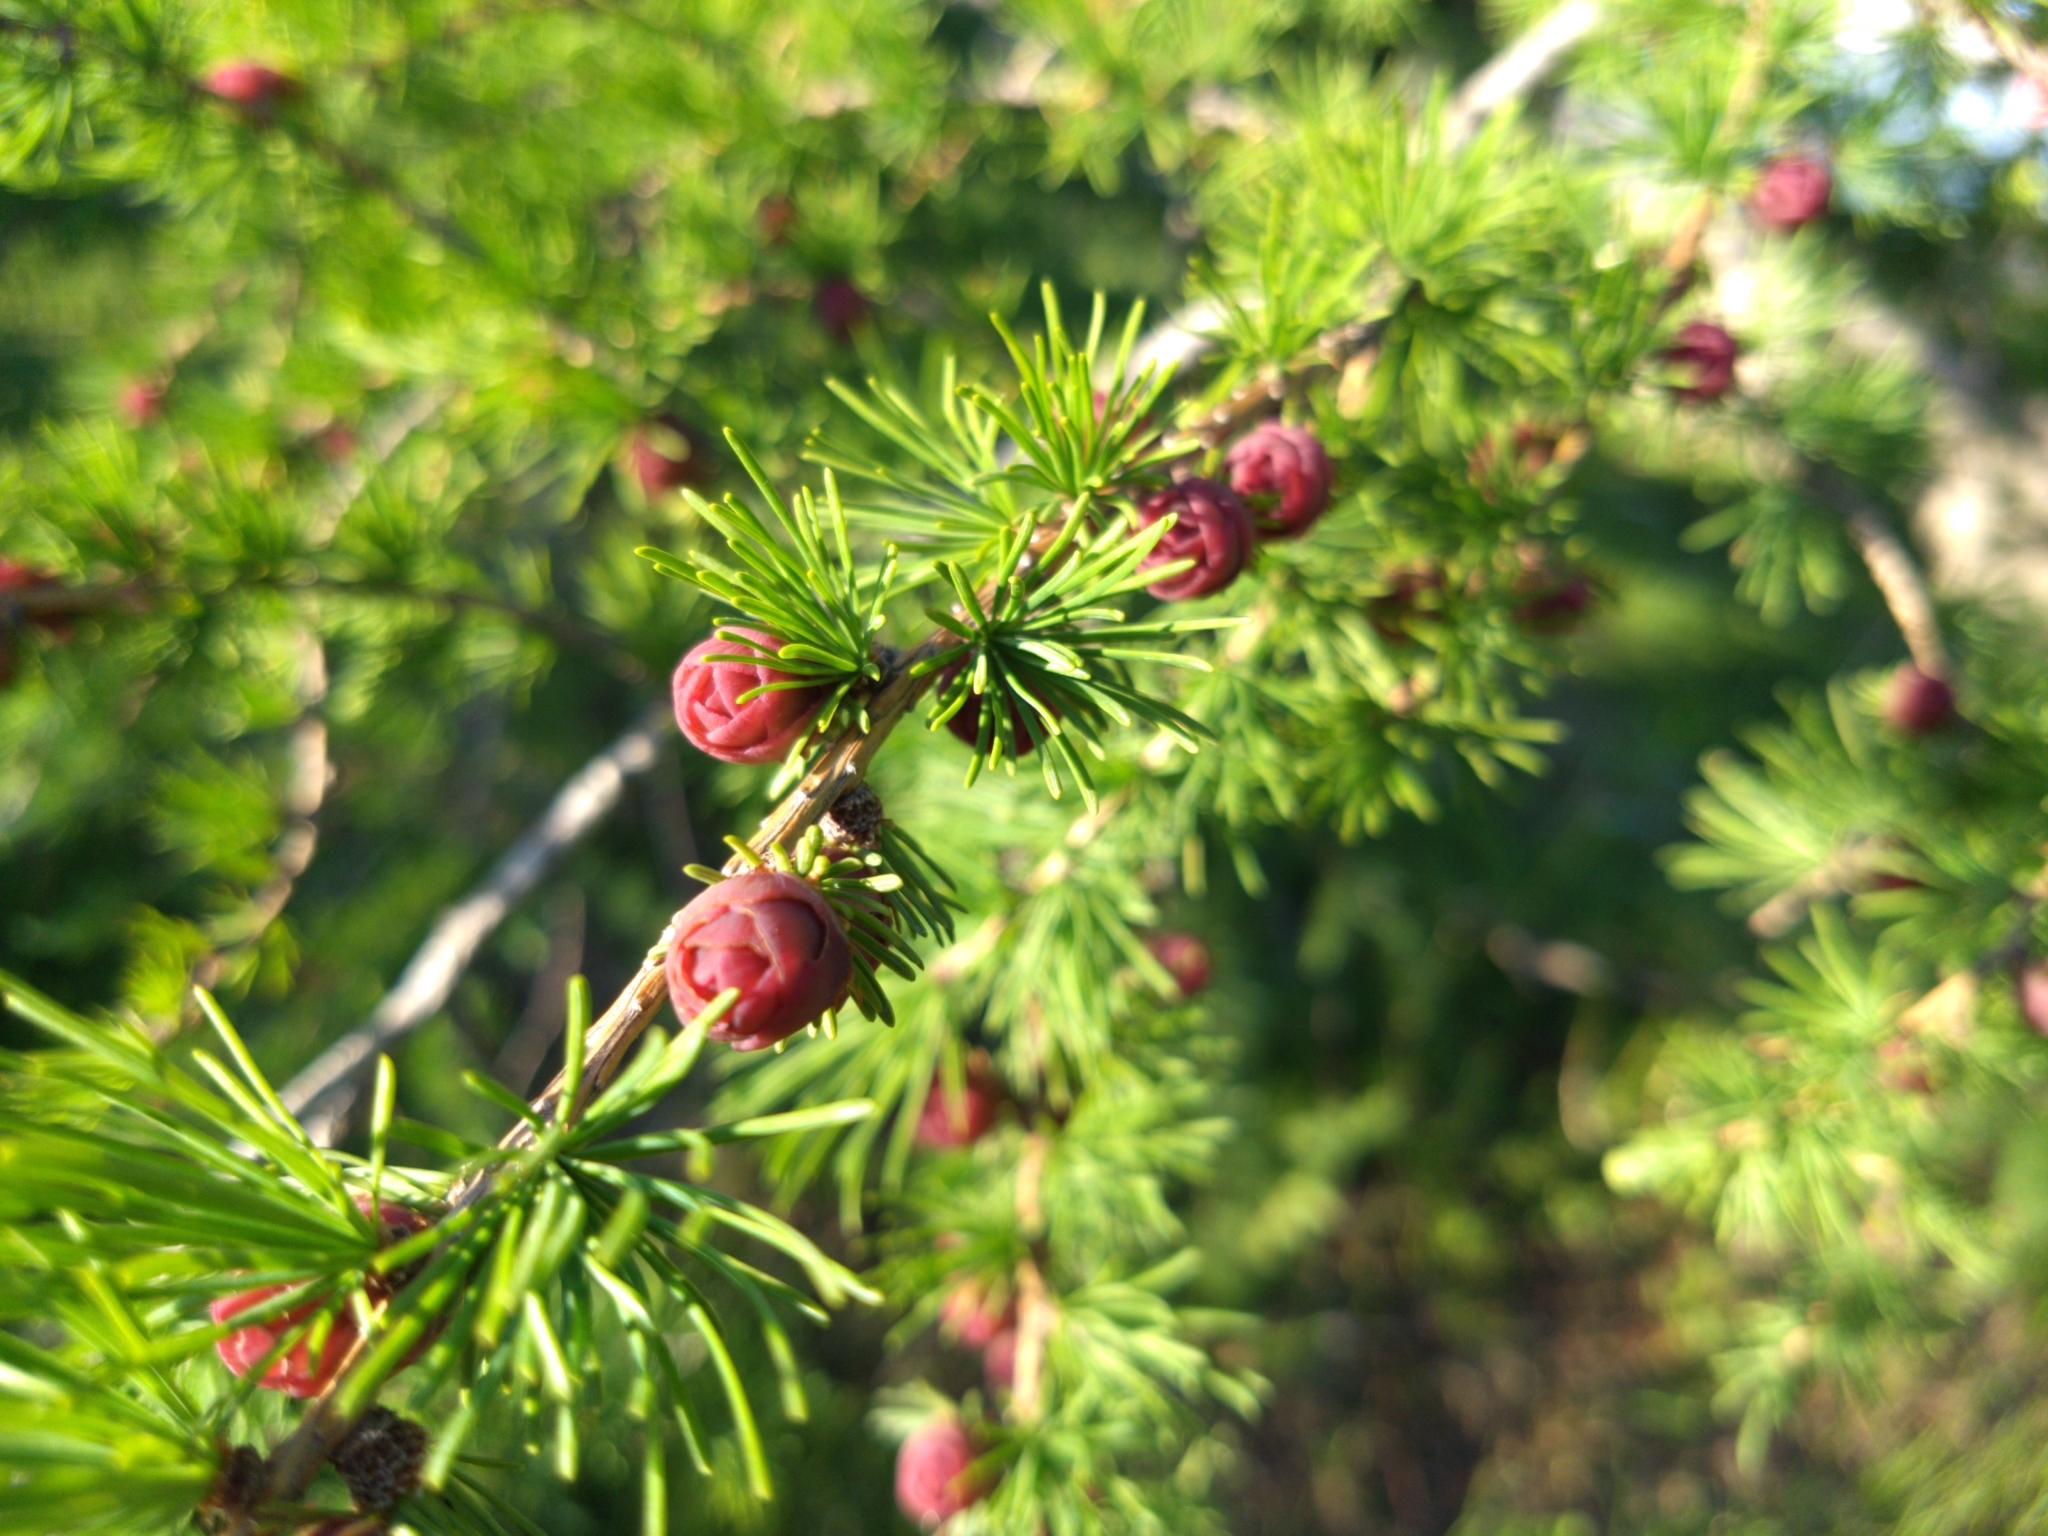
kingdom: Plantae
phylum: Tracheophyta
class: Pinopsida
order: Pinales
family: Pinaceae
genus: Larix
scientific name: Larix laricina
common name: American larch
